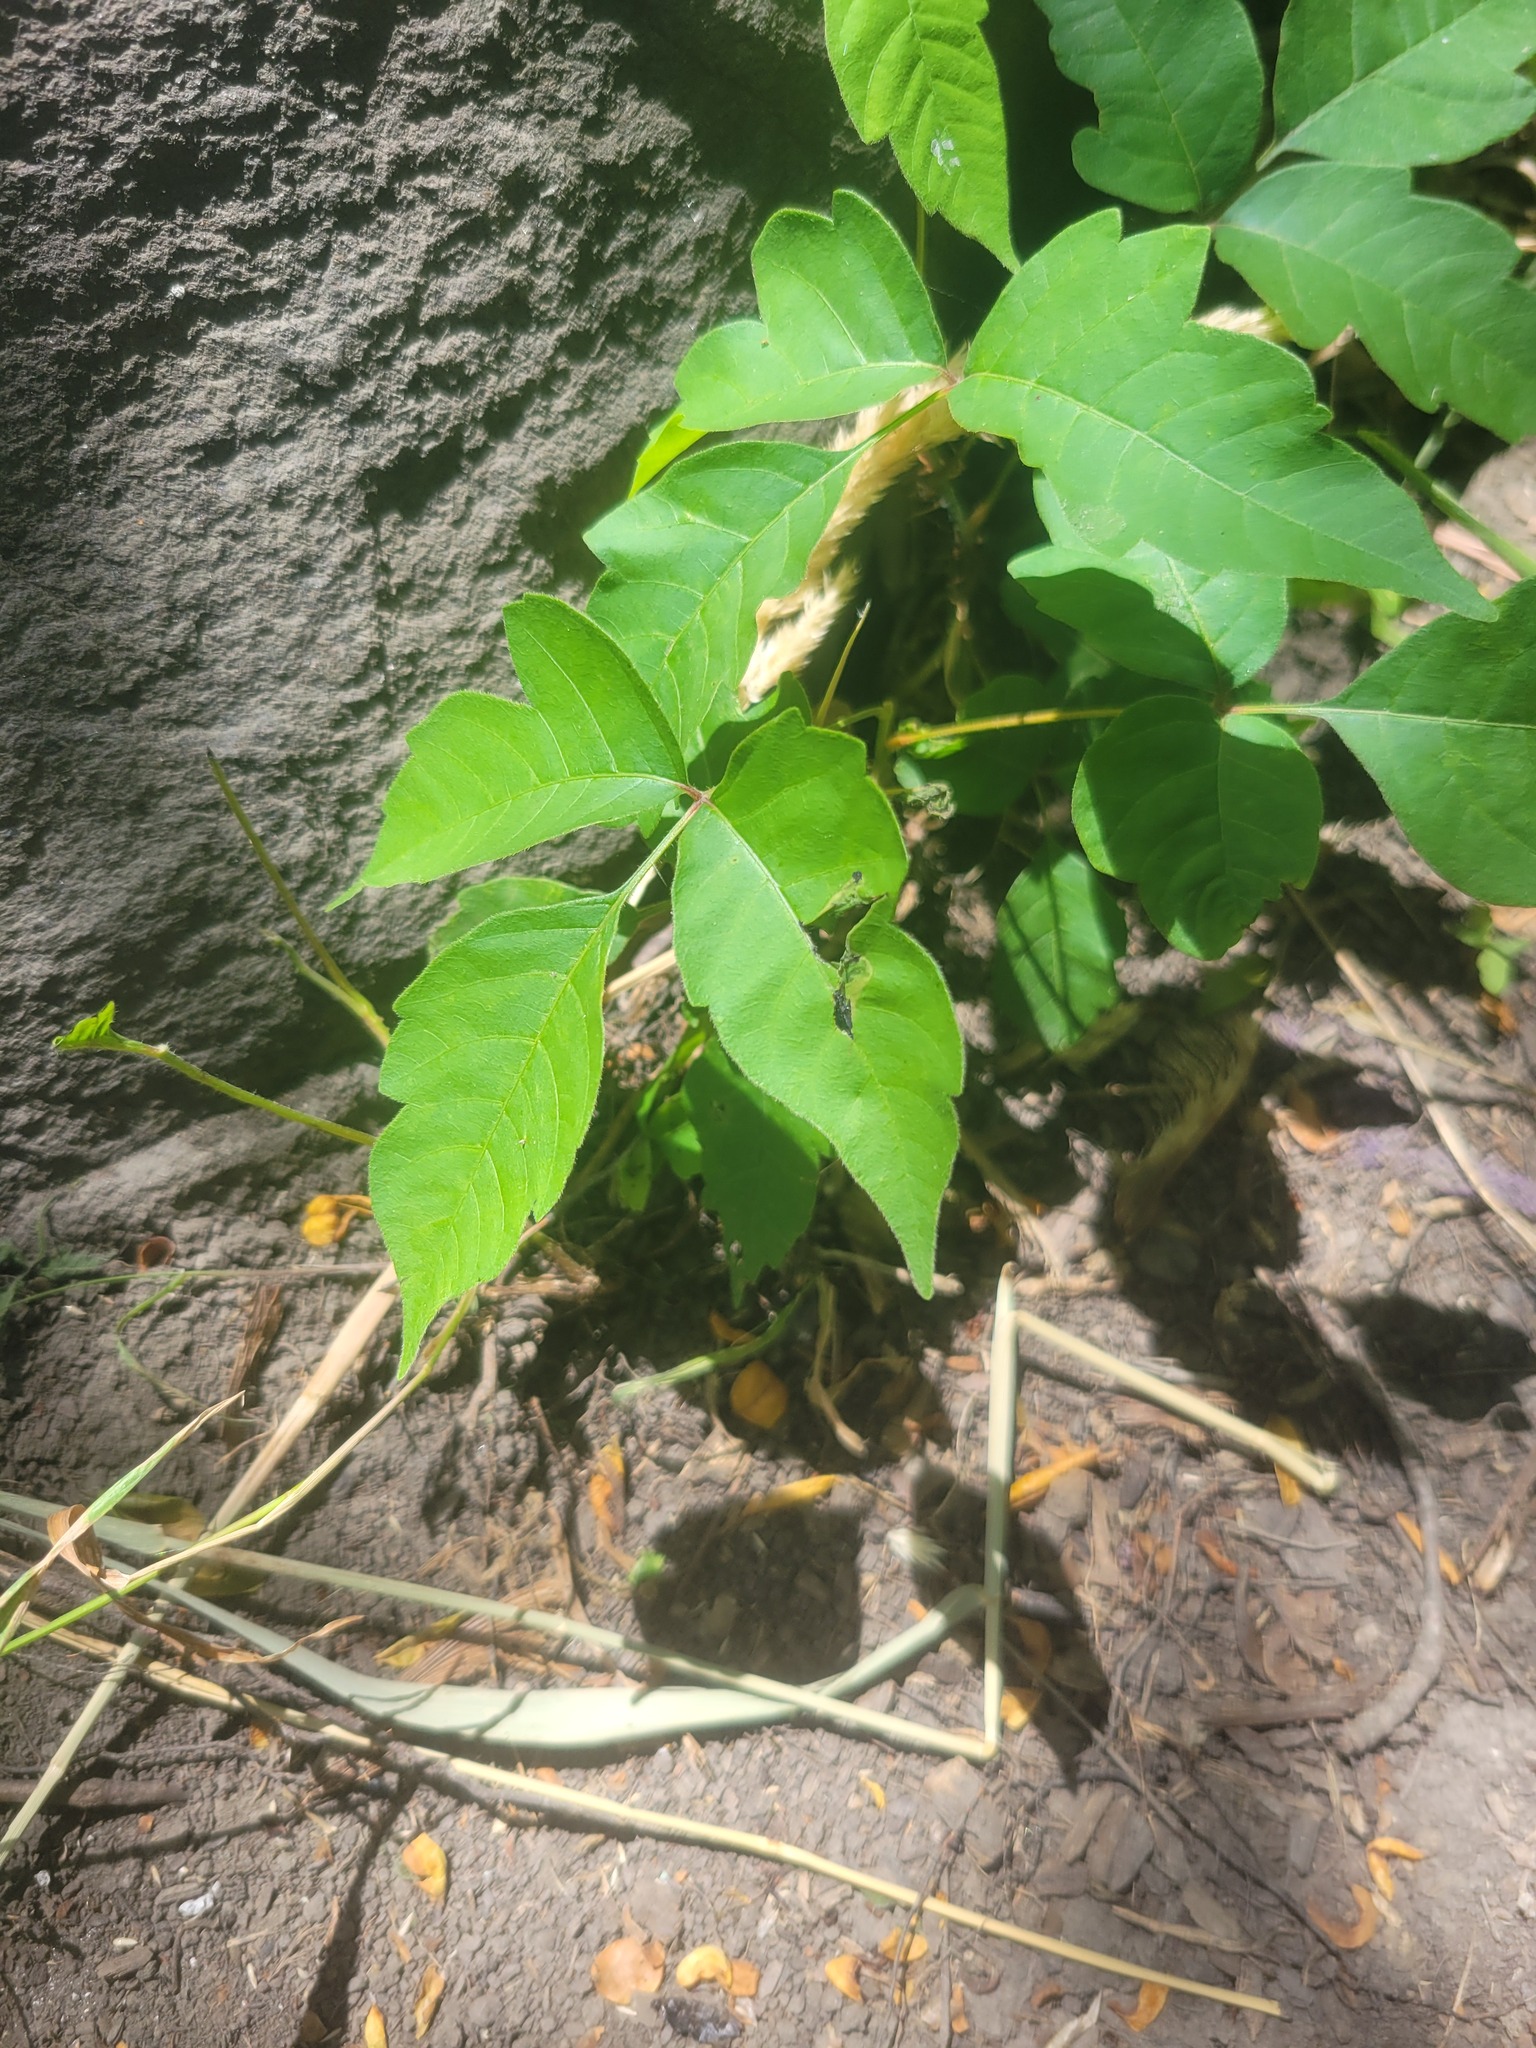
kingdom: Plantae
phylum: Tracheophyta
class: Magnoliopsida
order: Sapindales
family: Anacardiaceae
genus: Toxicodendron
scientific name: Toxicodendron radicans
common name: Poison ivy
